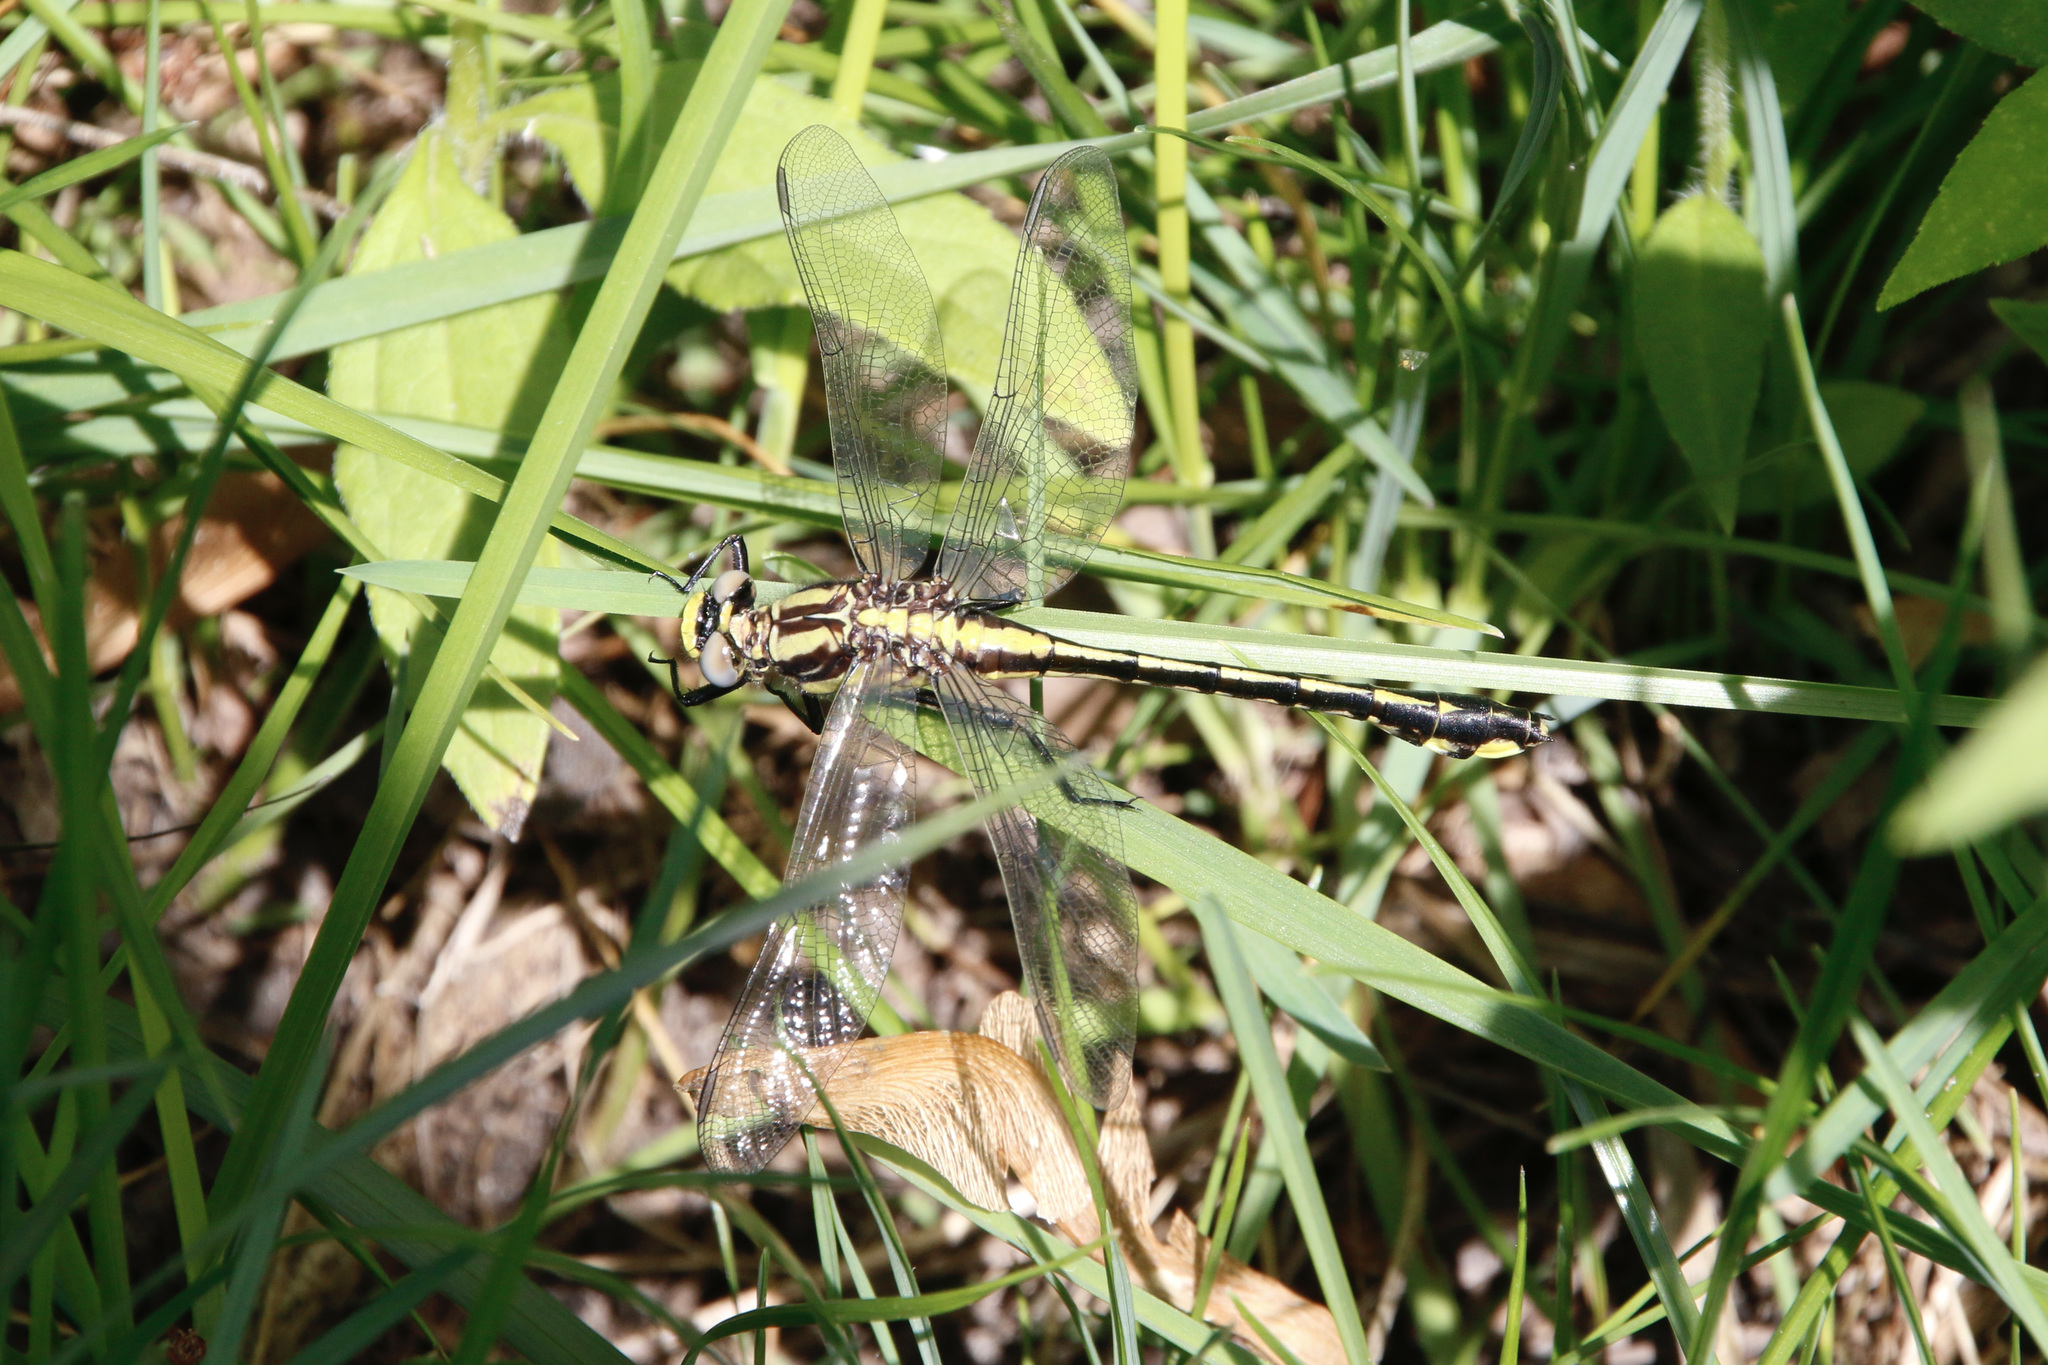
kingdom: Animalia
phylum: Arthropoda
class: Insecta
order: Odonata
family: Gomphidae
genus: Gomphurus
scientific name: Gomphurus fraternus
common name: Midland clubtail
